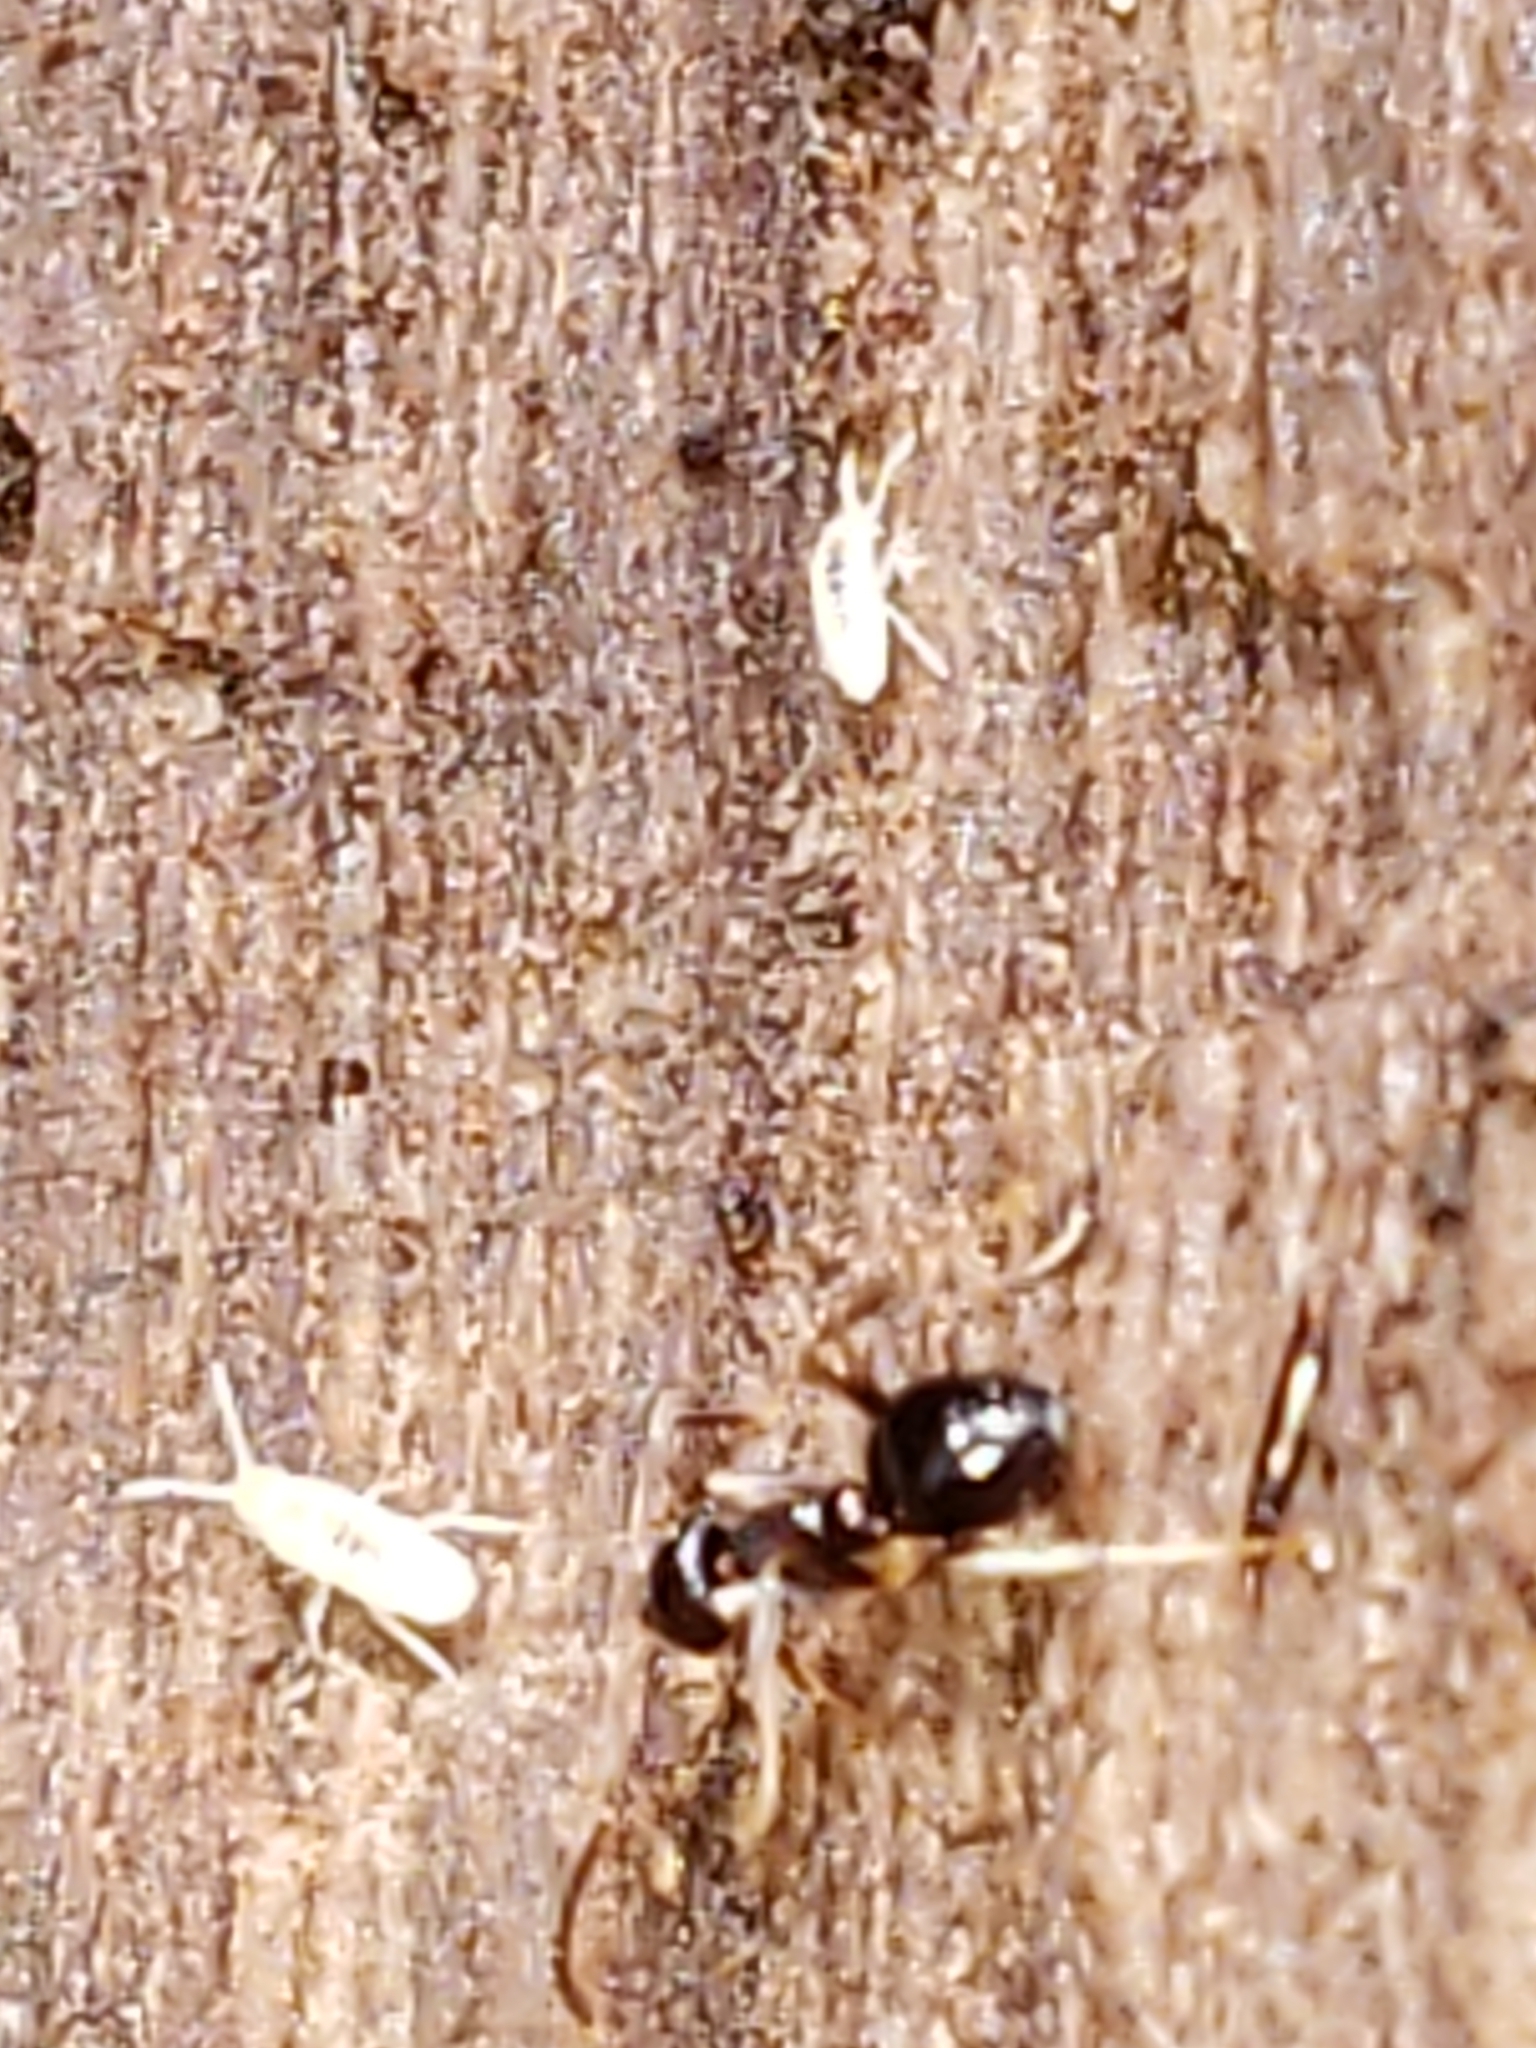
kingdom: Animalia
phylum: Arthropoda
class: Insecta
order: Hymenoptera
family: Formicidae
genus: Prenolepis
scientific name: Prenolepis imparis
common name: Small honey ant
